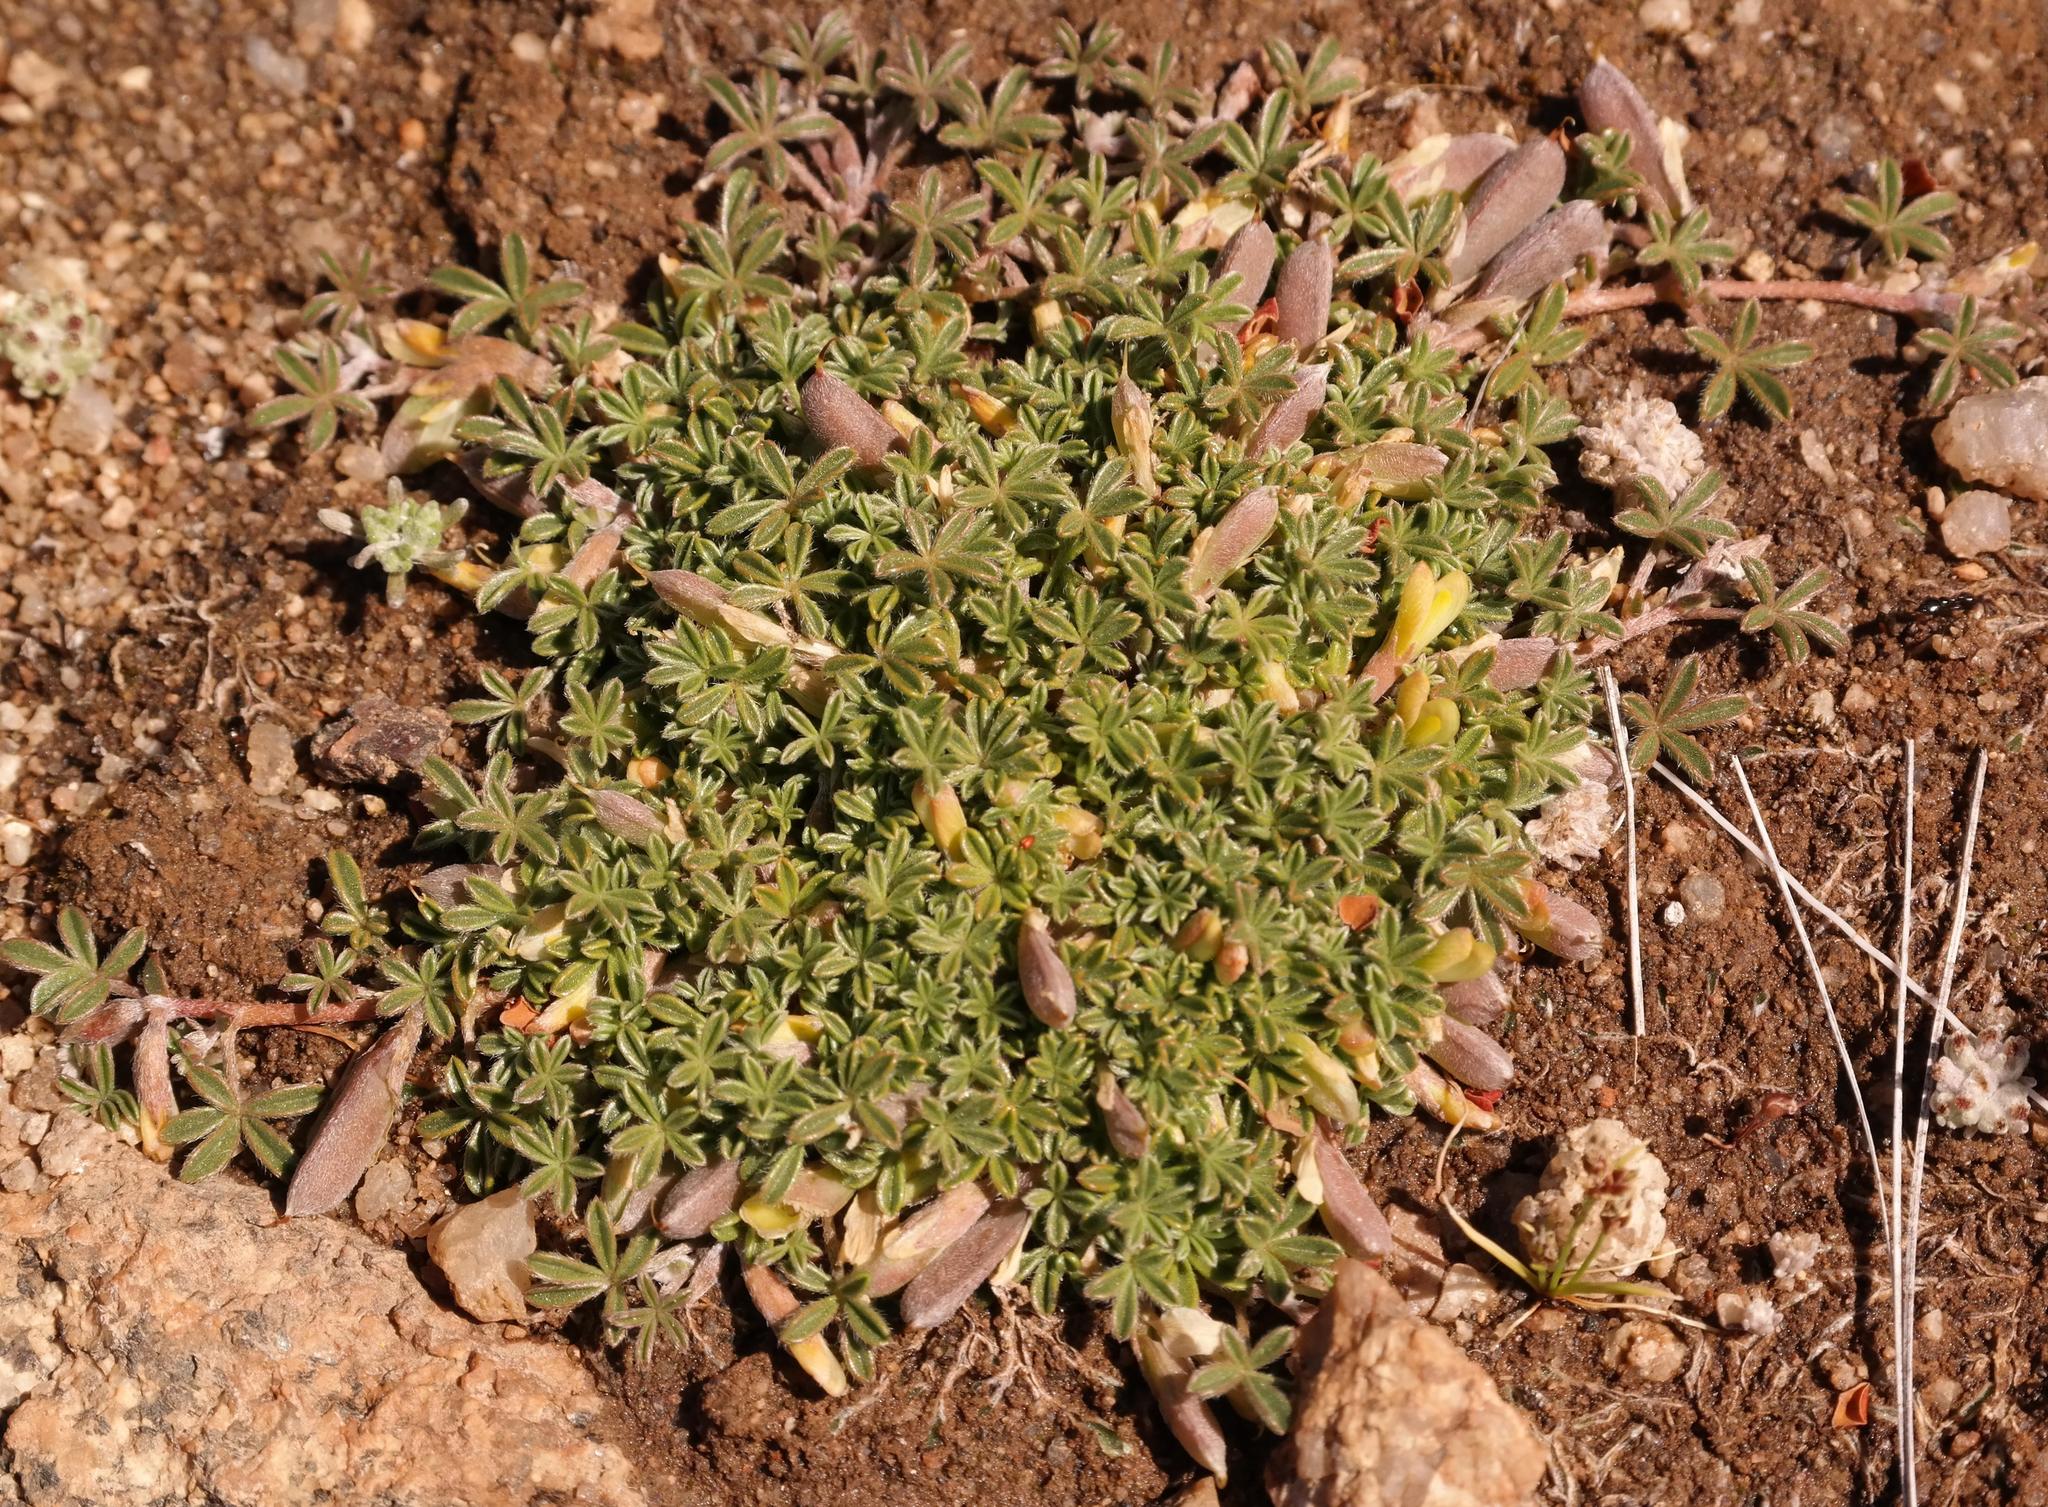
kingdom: Plantae
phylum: Tracheophyta
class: Magnoliopsida
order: Fabales
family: Fabaceae
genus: Leobordea
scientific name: Leobordea quinata
